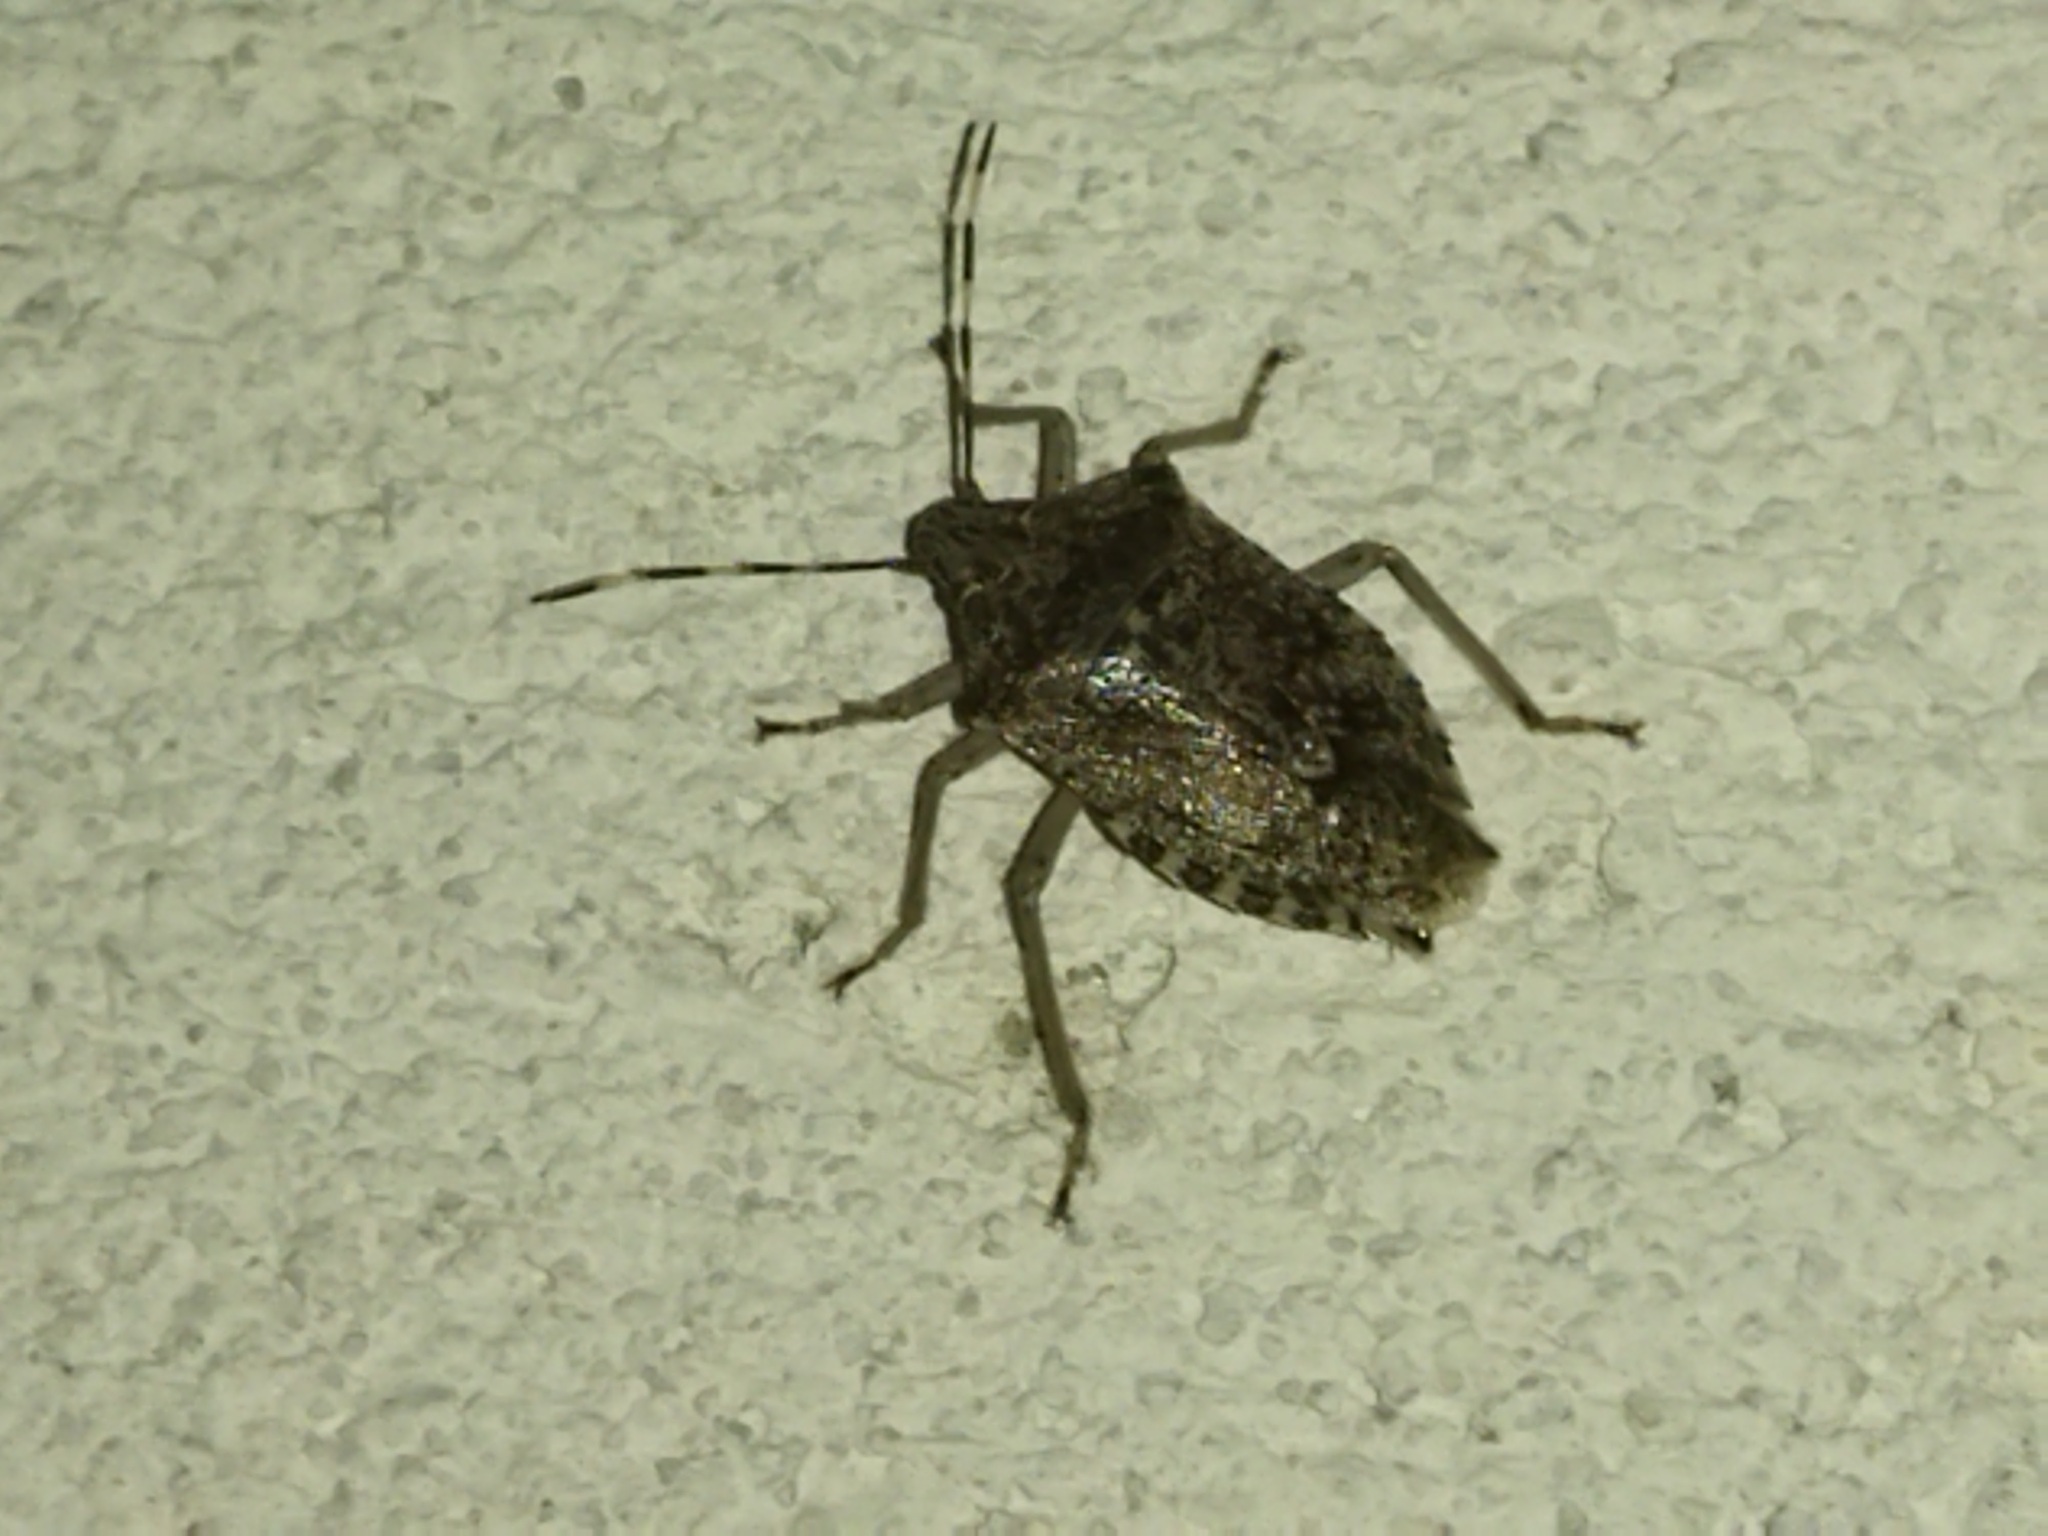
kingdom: Animalia
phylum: Arthropoda
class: Insecta
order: Hemiptera
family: Pentatomidae
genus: Rhaphigaster
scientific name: Rhaphigaster nebulosa
